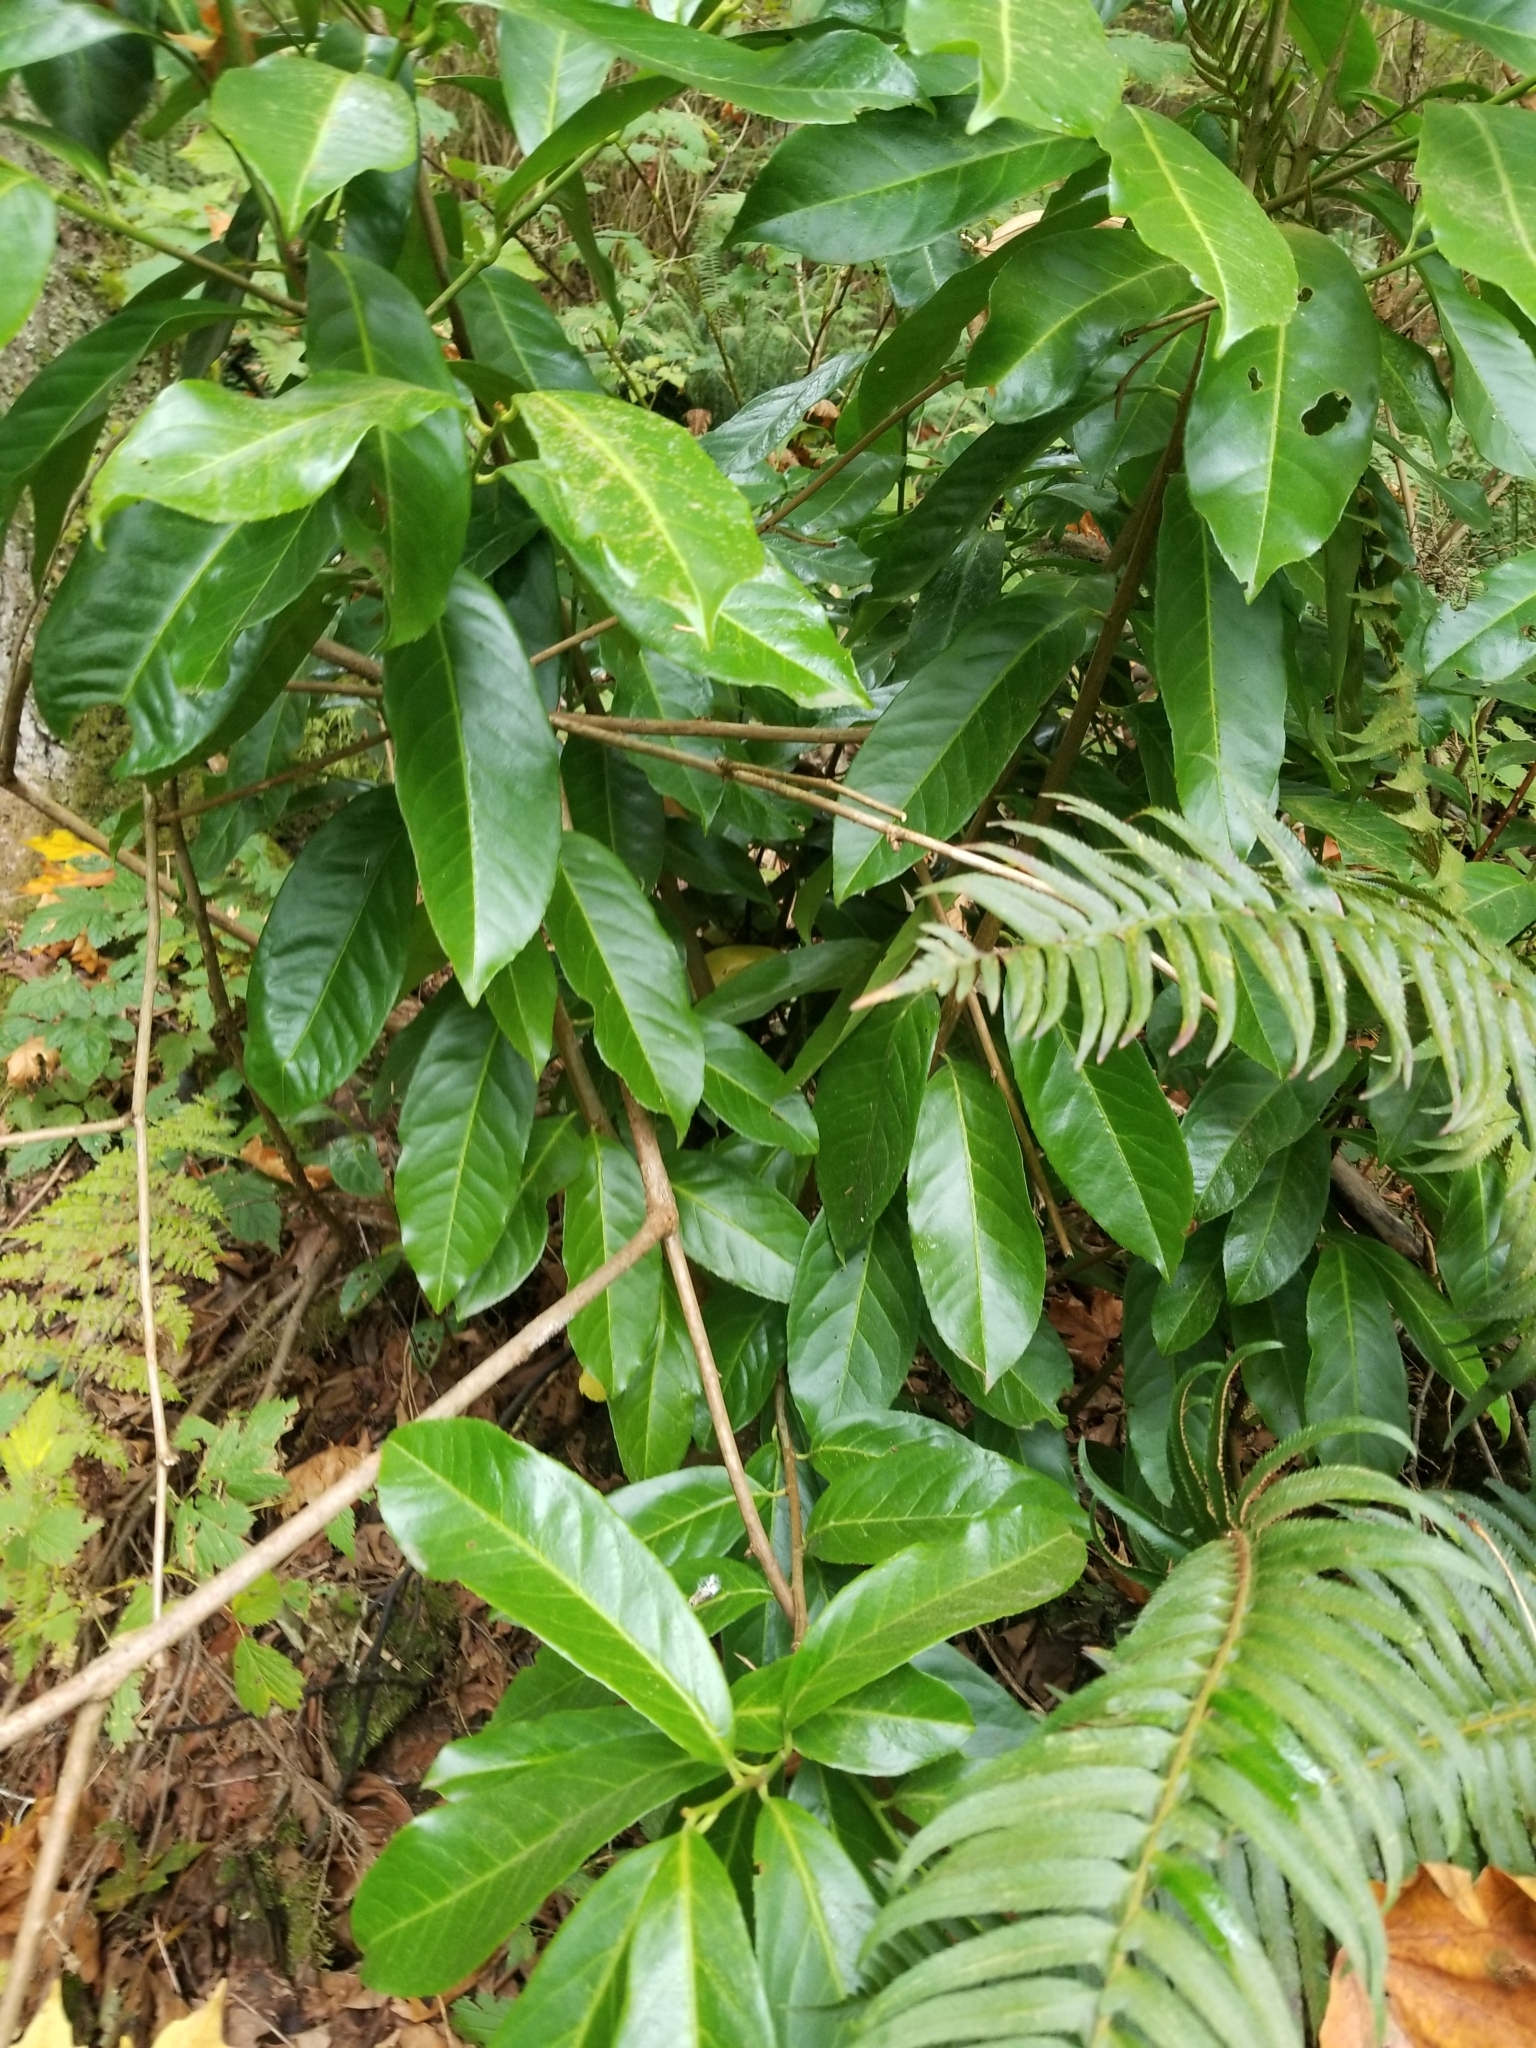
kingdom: Plantae
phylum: Tracheophyta
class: Magnoliopsida
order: Rosales
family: Rosaceae
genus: Prunus
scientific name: Prunus laurocerasus
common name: Cherry laurel
